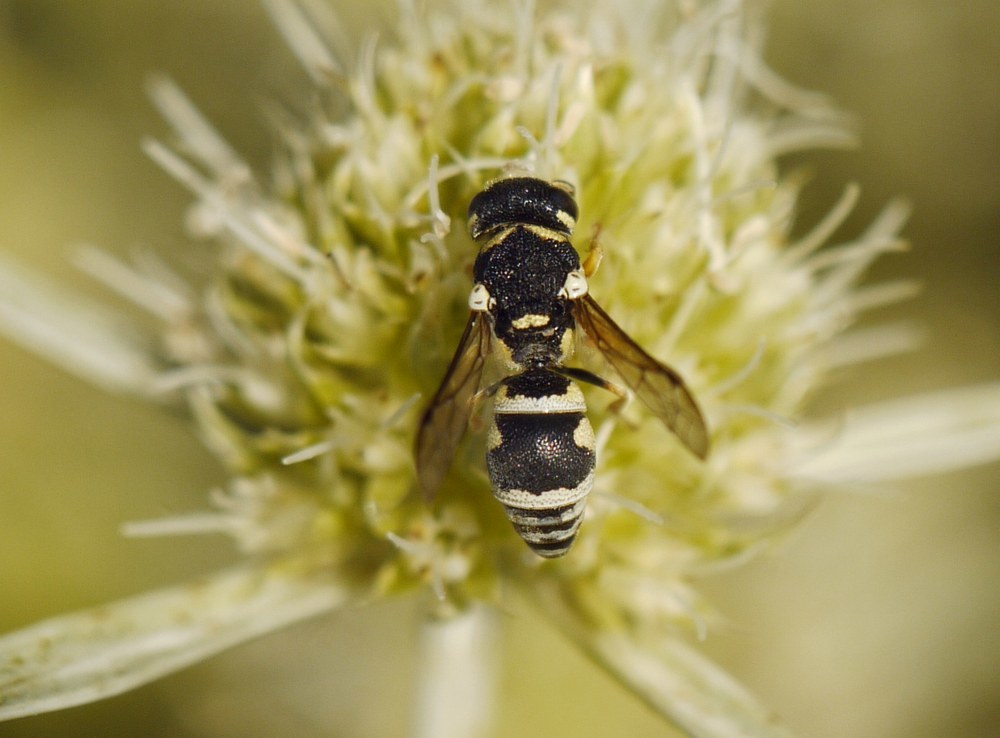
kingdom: Animalia
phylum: Arthropoda
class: Insecta
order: Hymenoptera
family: Eumenidae
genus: Eustenancistrocerus
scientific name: Eustenancistrocerus amadanensis
